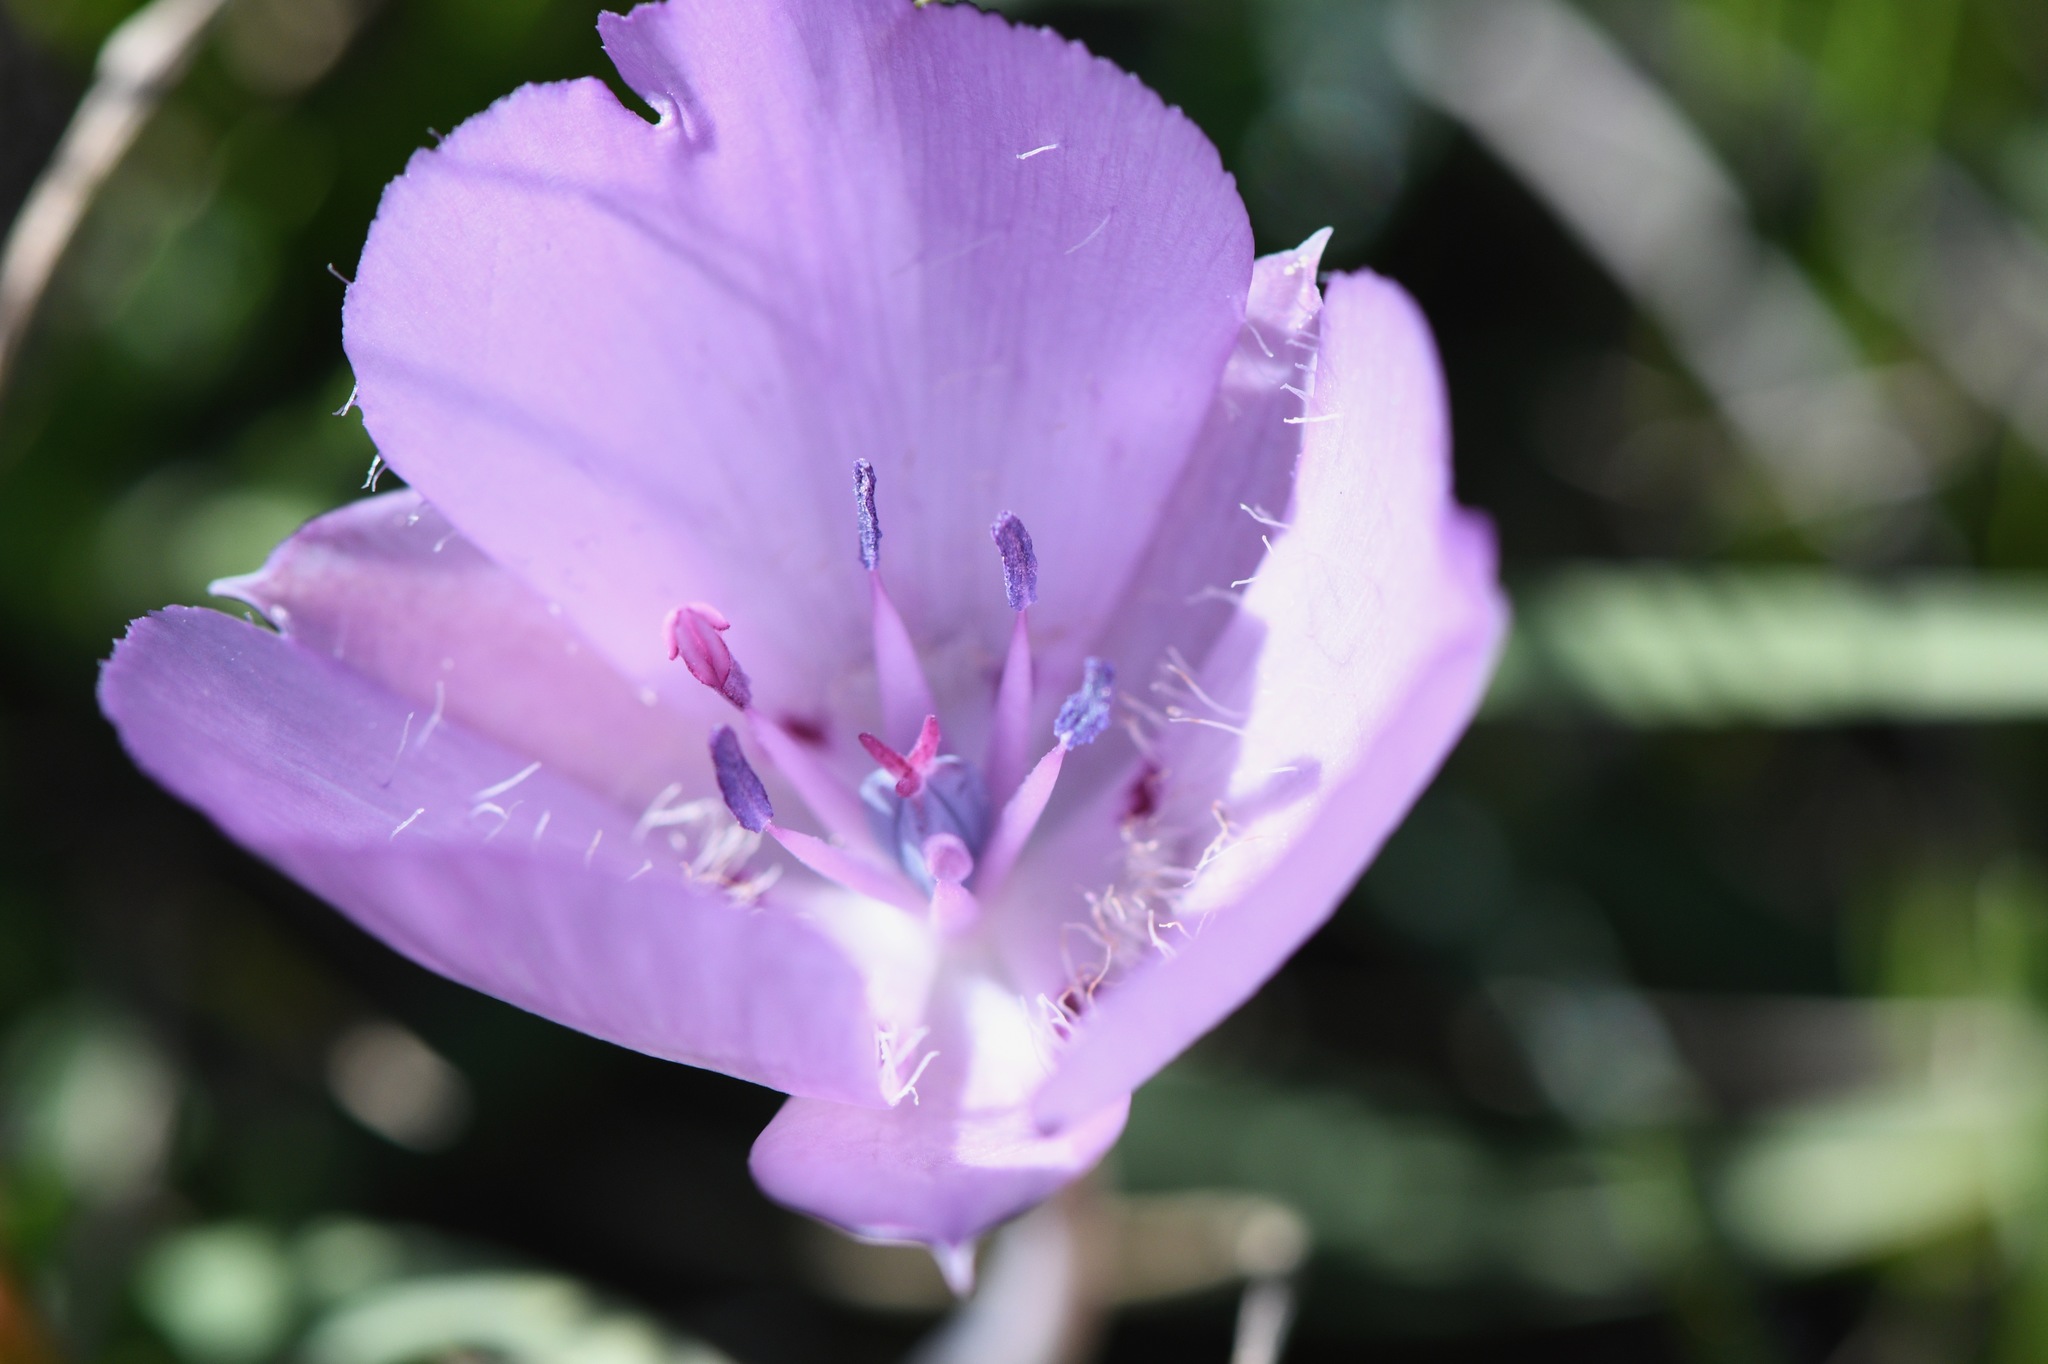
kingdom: Plantae
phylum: Tracheophyta
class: Liliopsida
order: Liliales
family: Liliaceae
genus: Calochortus
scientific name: Calochortus uniflorus
